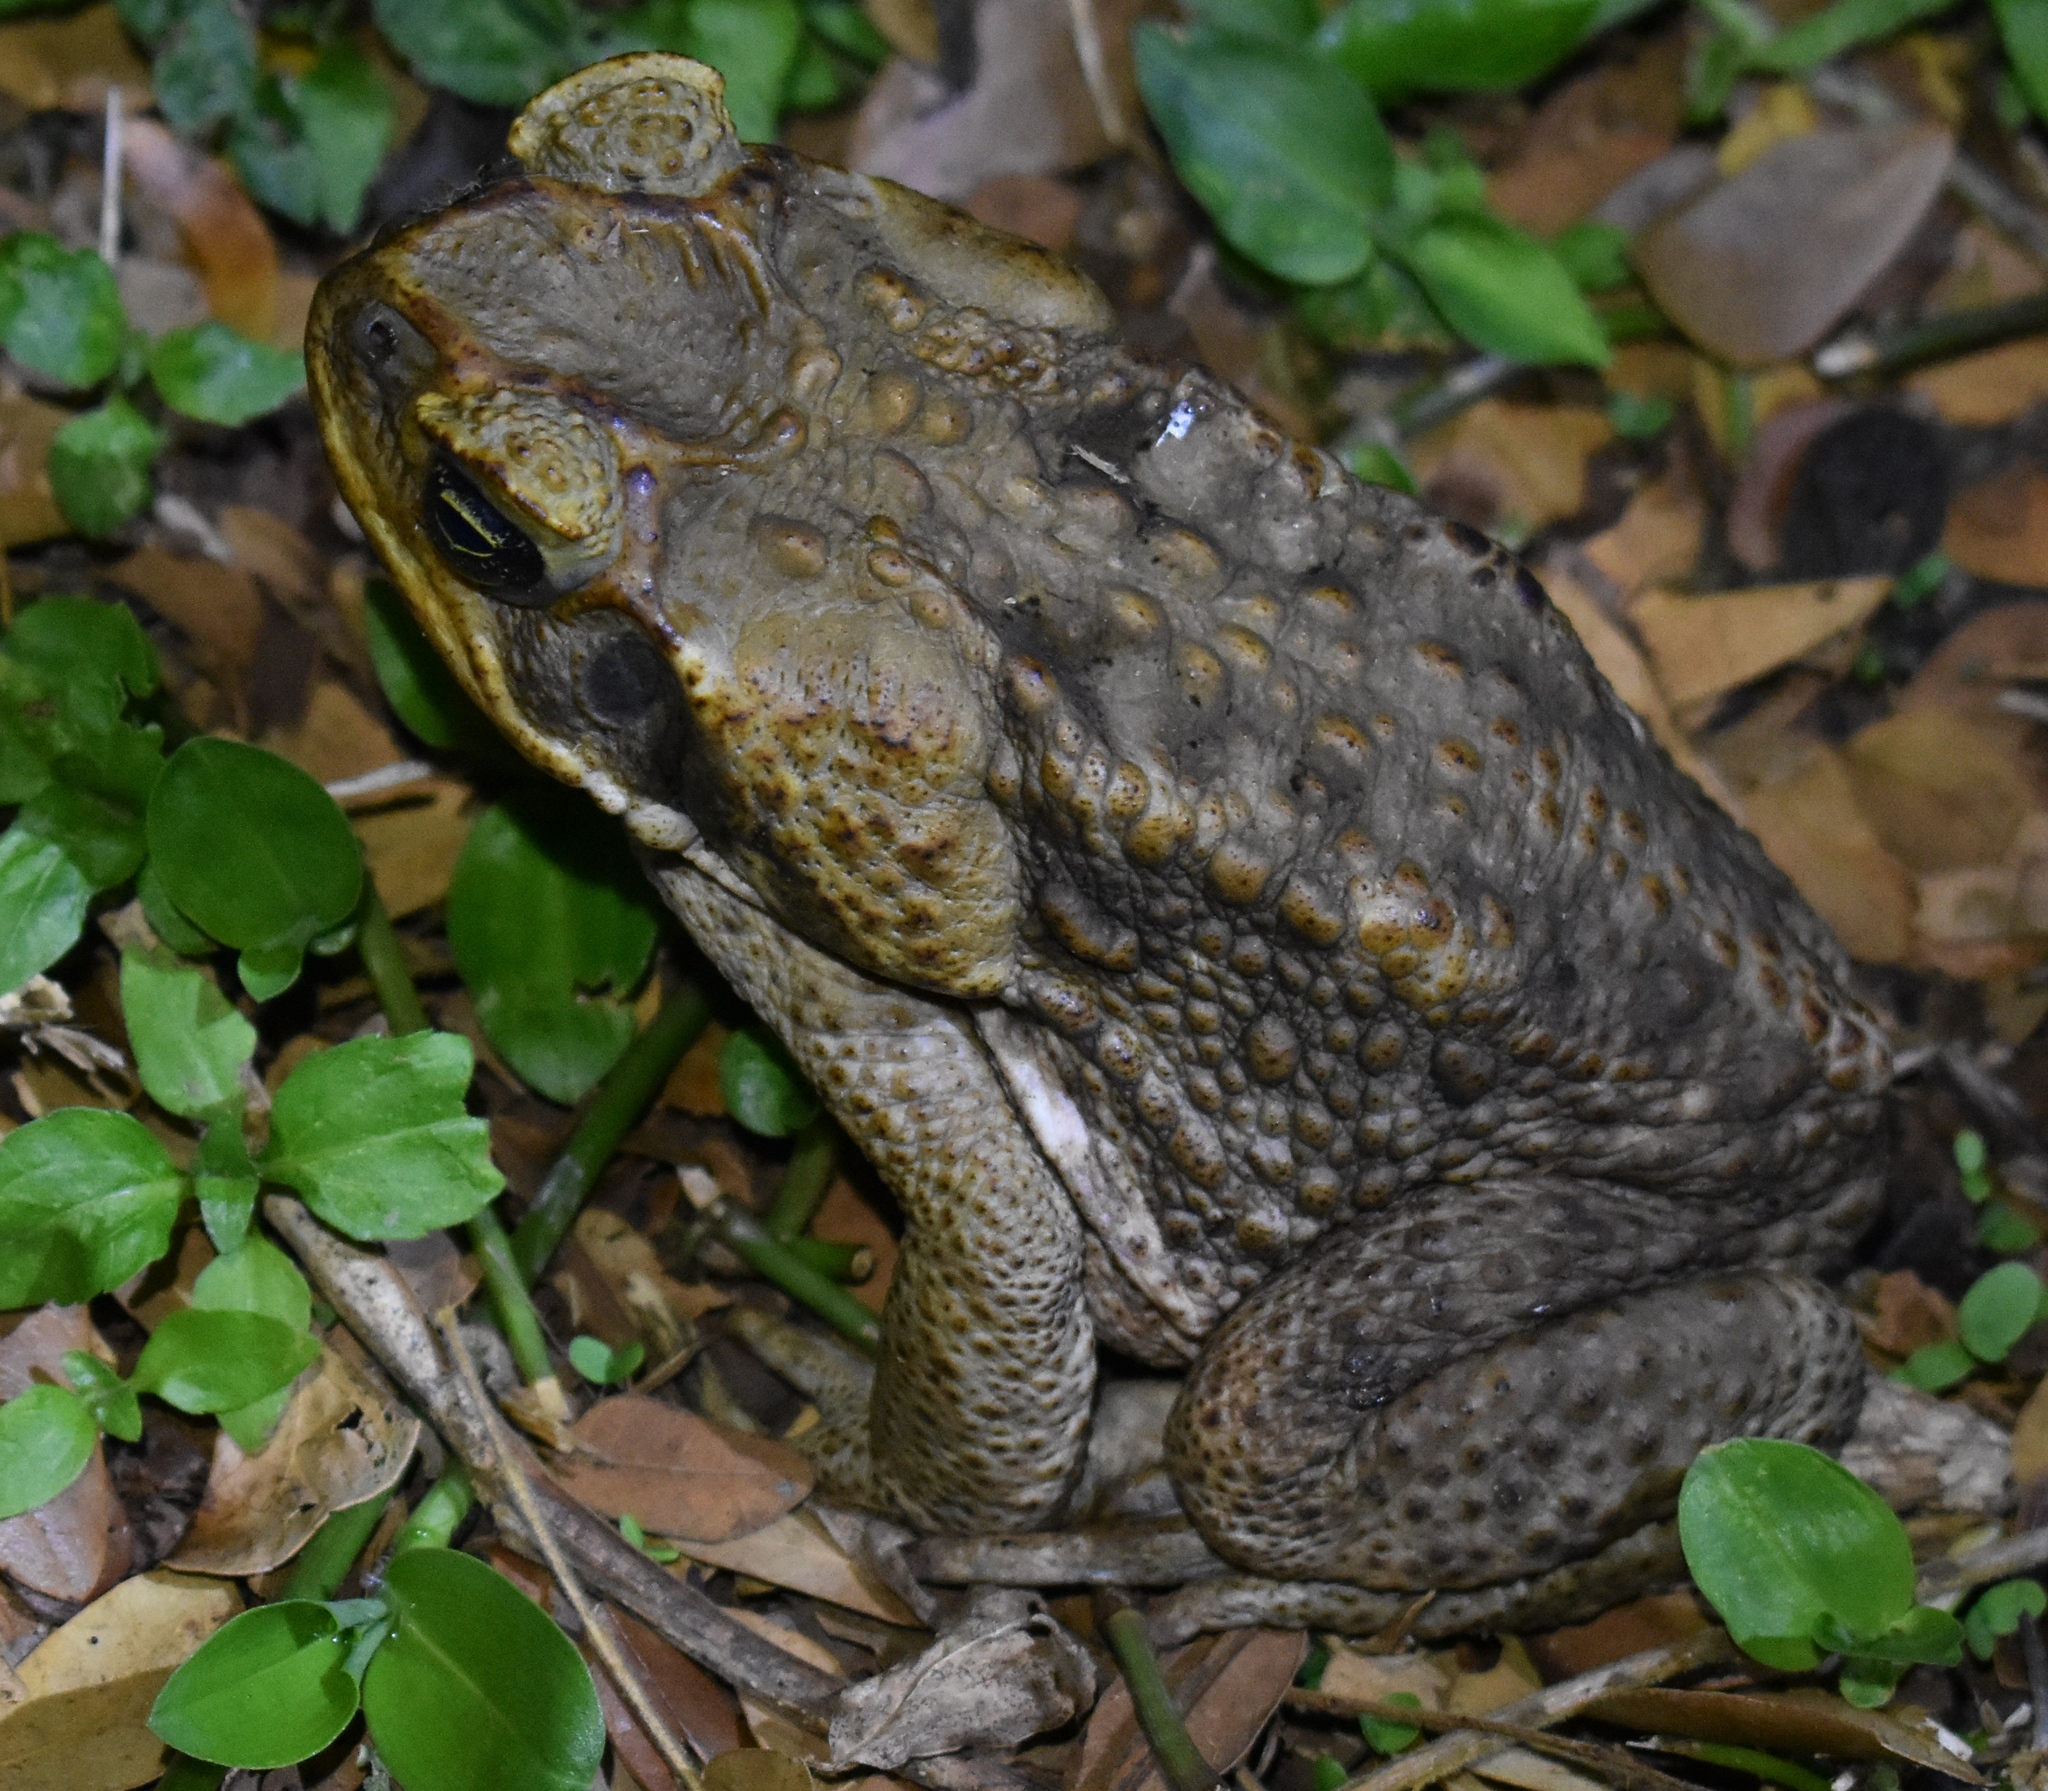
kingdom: Animalia
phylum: Chordata
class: Amphibia
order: Anura
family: Bufonidae
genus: Rhinella
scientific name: Rhinella marina
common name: Cane toad
